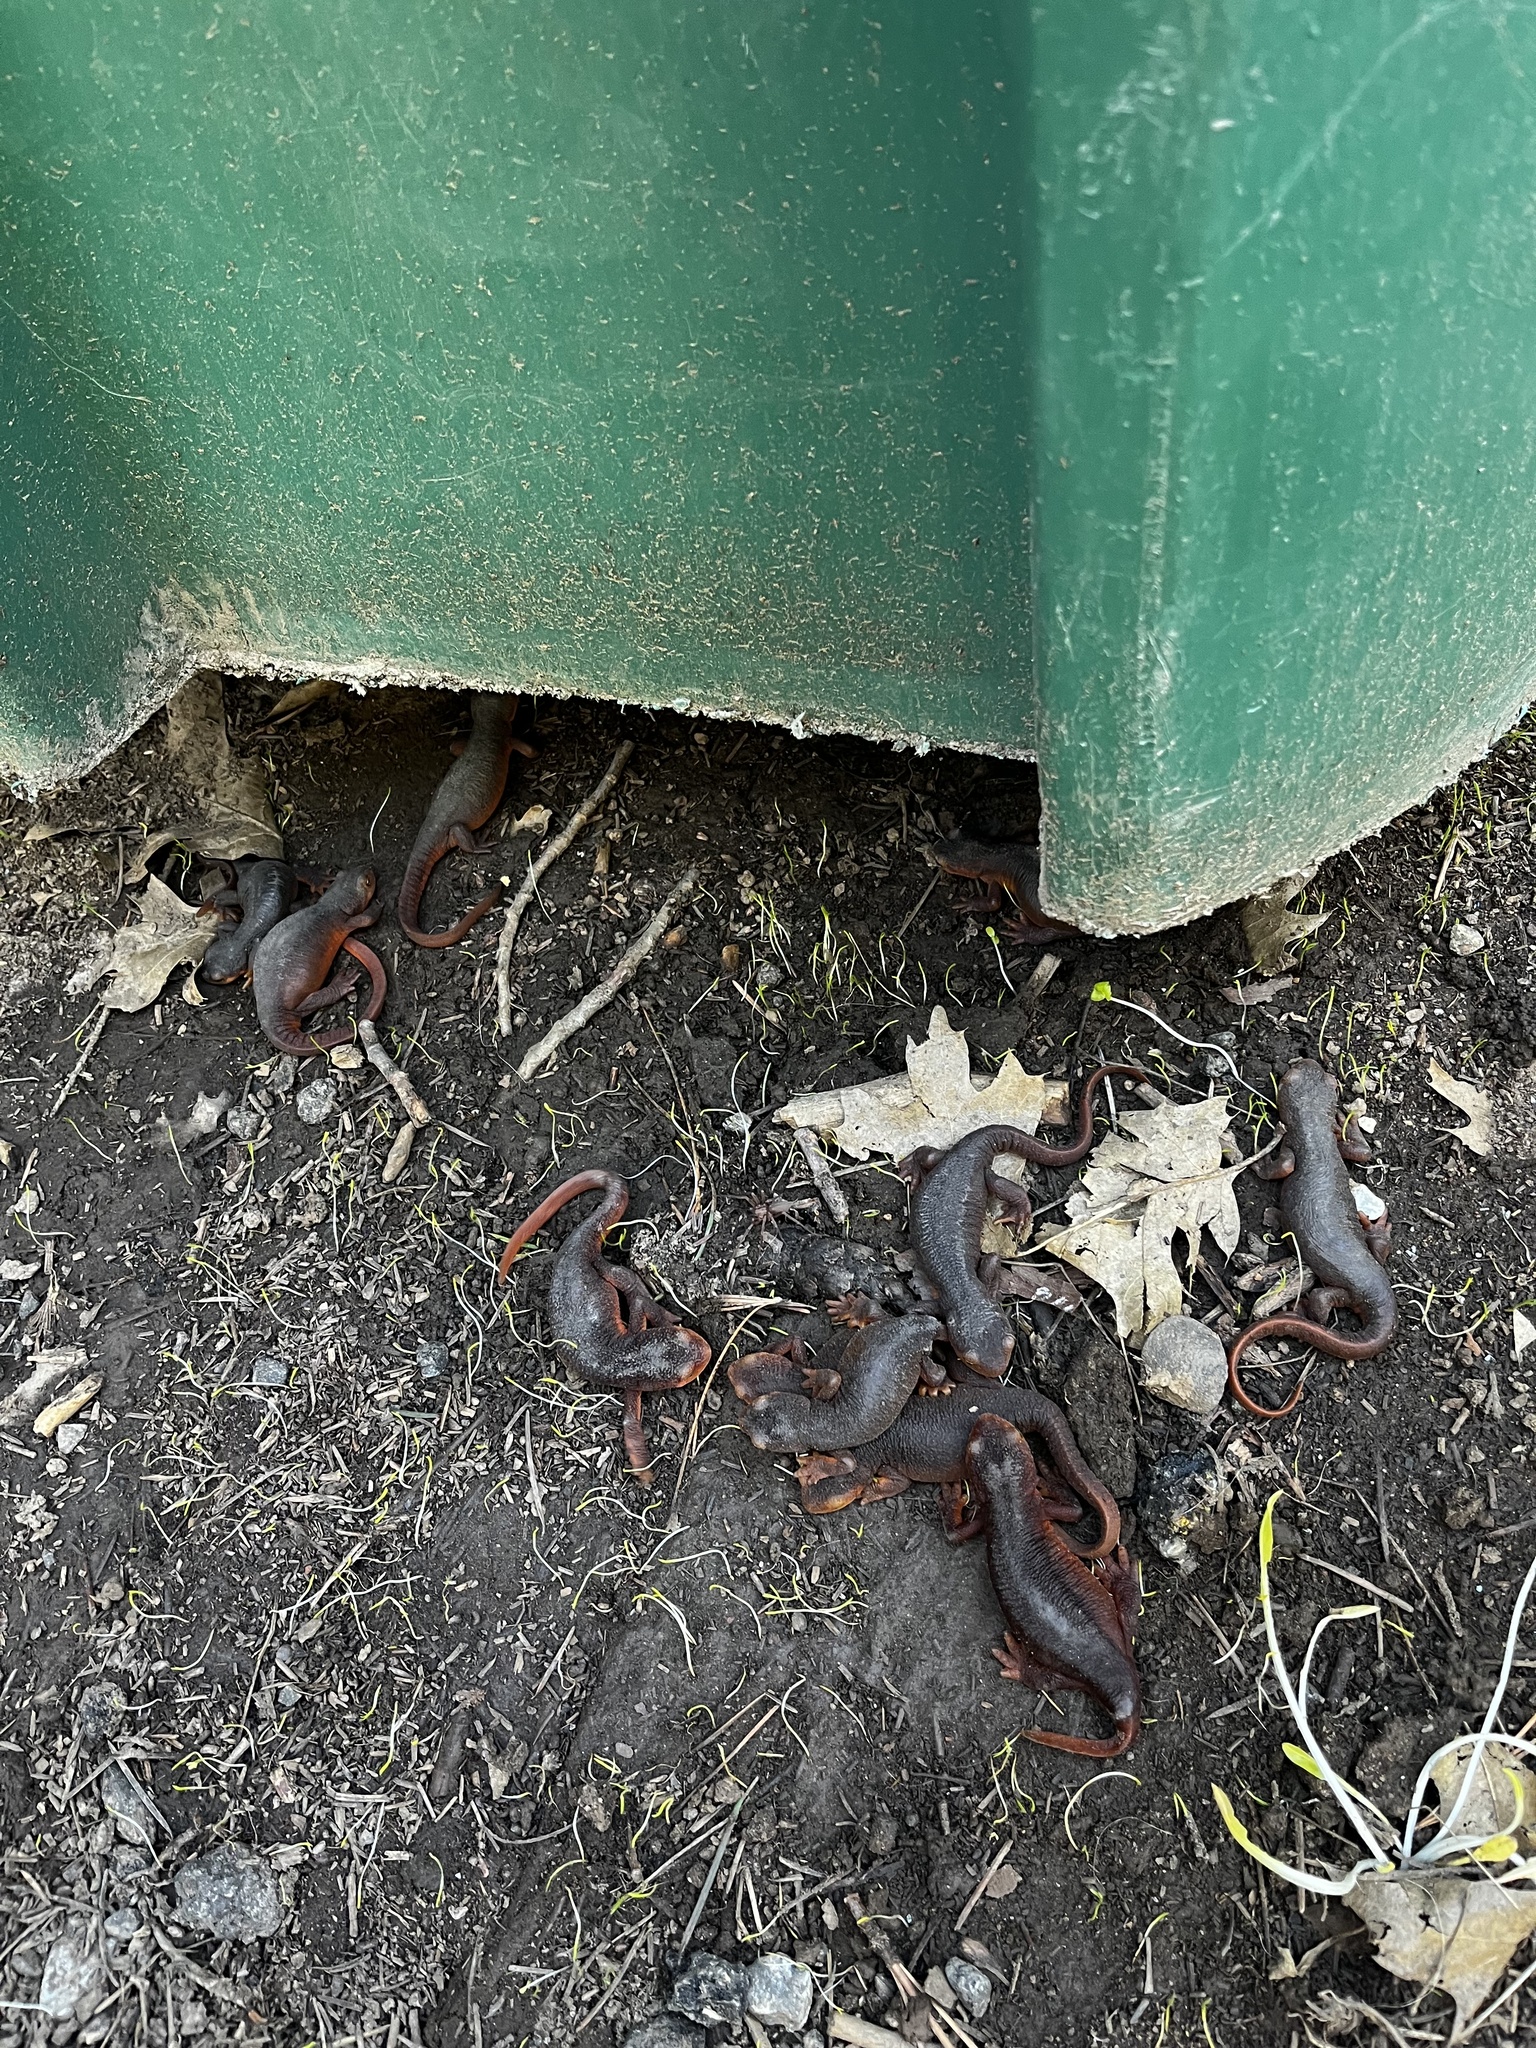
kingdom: Animalia
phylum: Chordata
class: Amphibia
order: Caudata
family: Salamandridae
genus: Taricha
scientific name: Taricha sierrae
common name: Sierra newt
